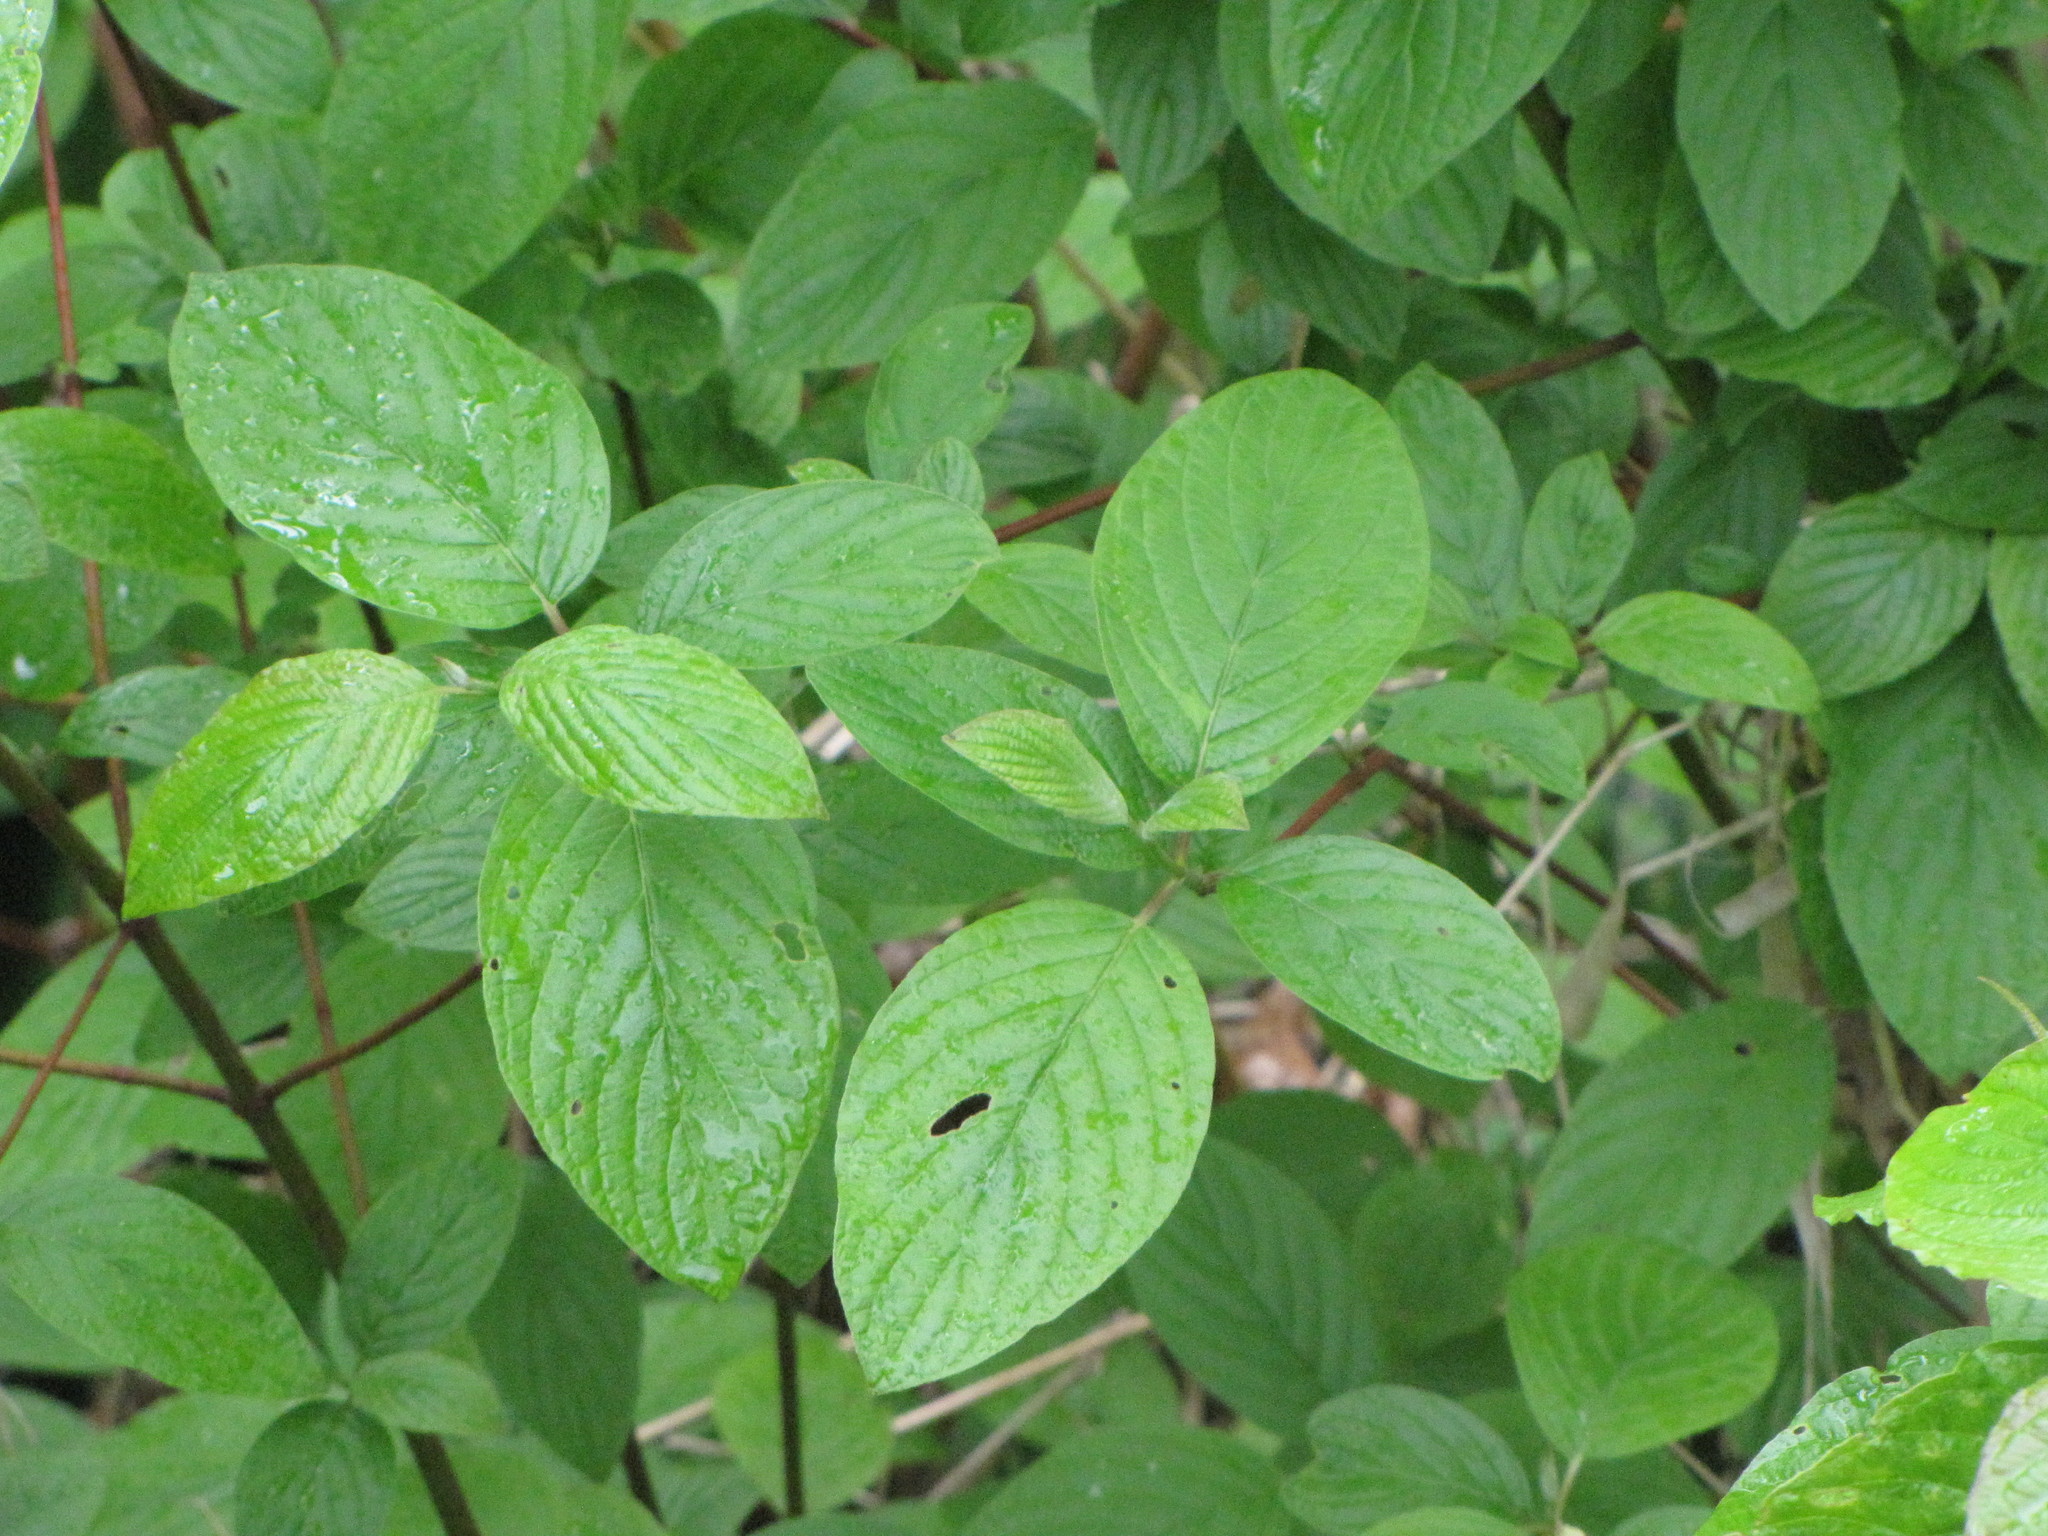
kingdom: Plantae
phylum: Tracheophyta
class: Magnoliopsida
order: Cornales
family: Cornaceae
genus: Cornus
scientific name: Cornus sericea
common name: Red-osier dogwood
